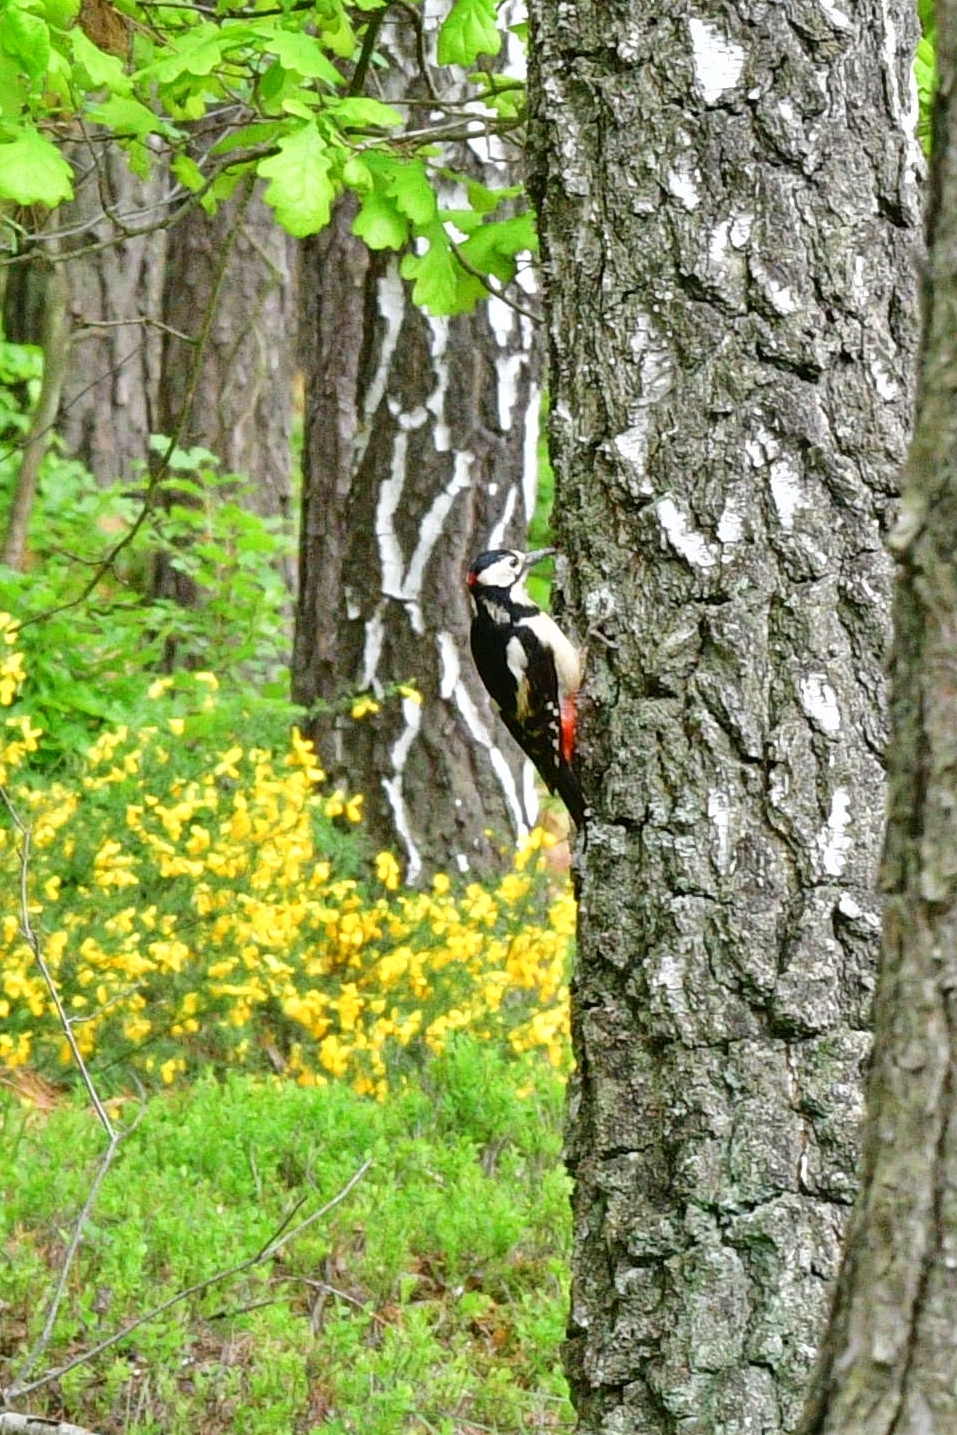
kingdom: Animalia
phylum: Chordata
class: Aves
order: Piciformes
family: Picidae
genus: Dendrocopos
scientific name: Dendrocopos major
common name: Great spotted woodpecker
